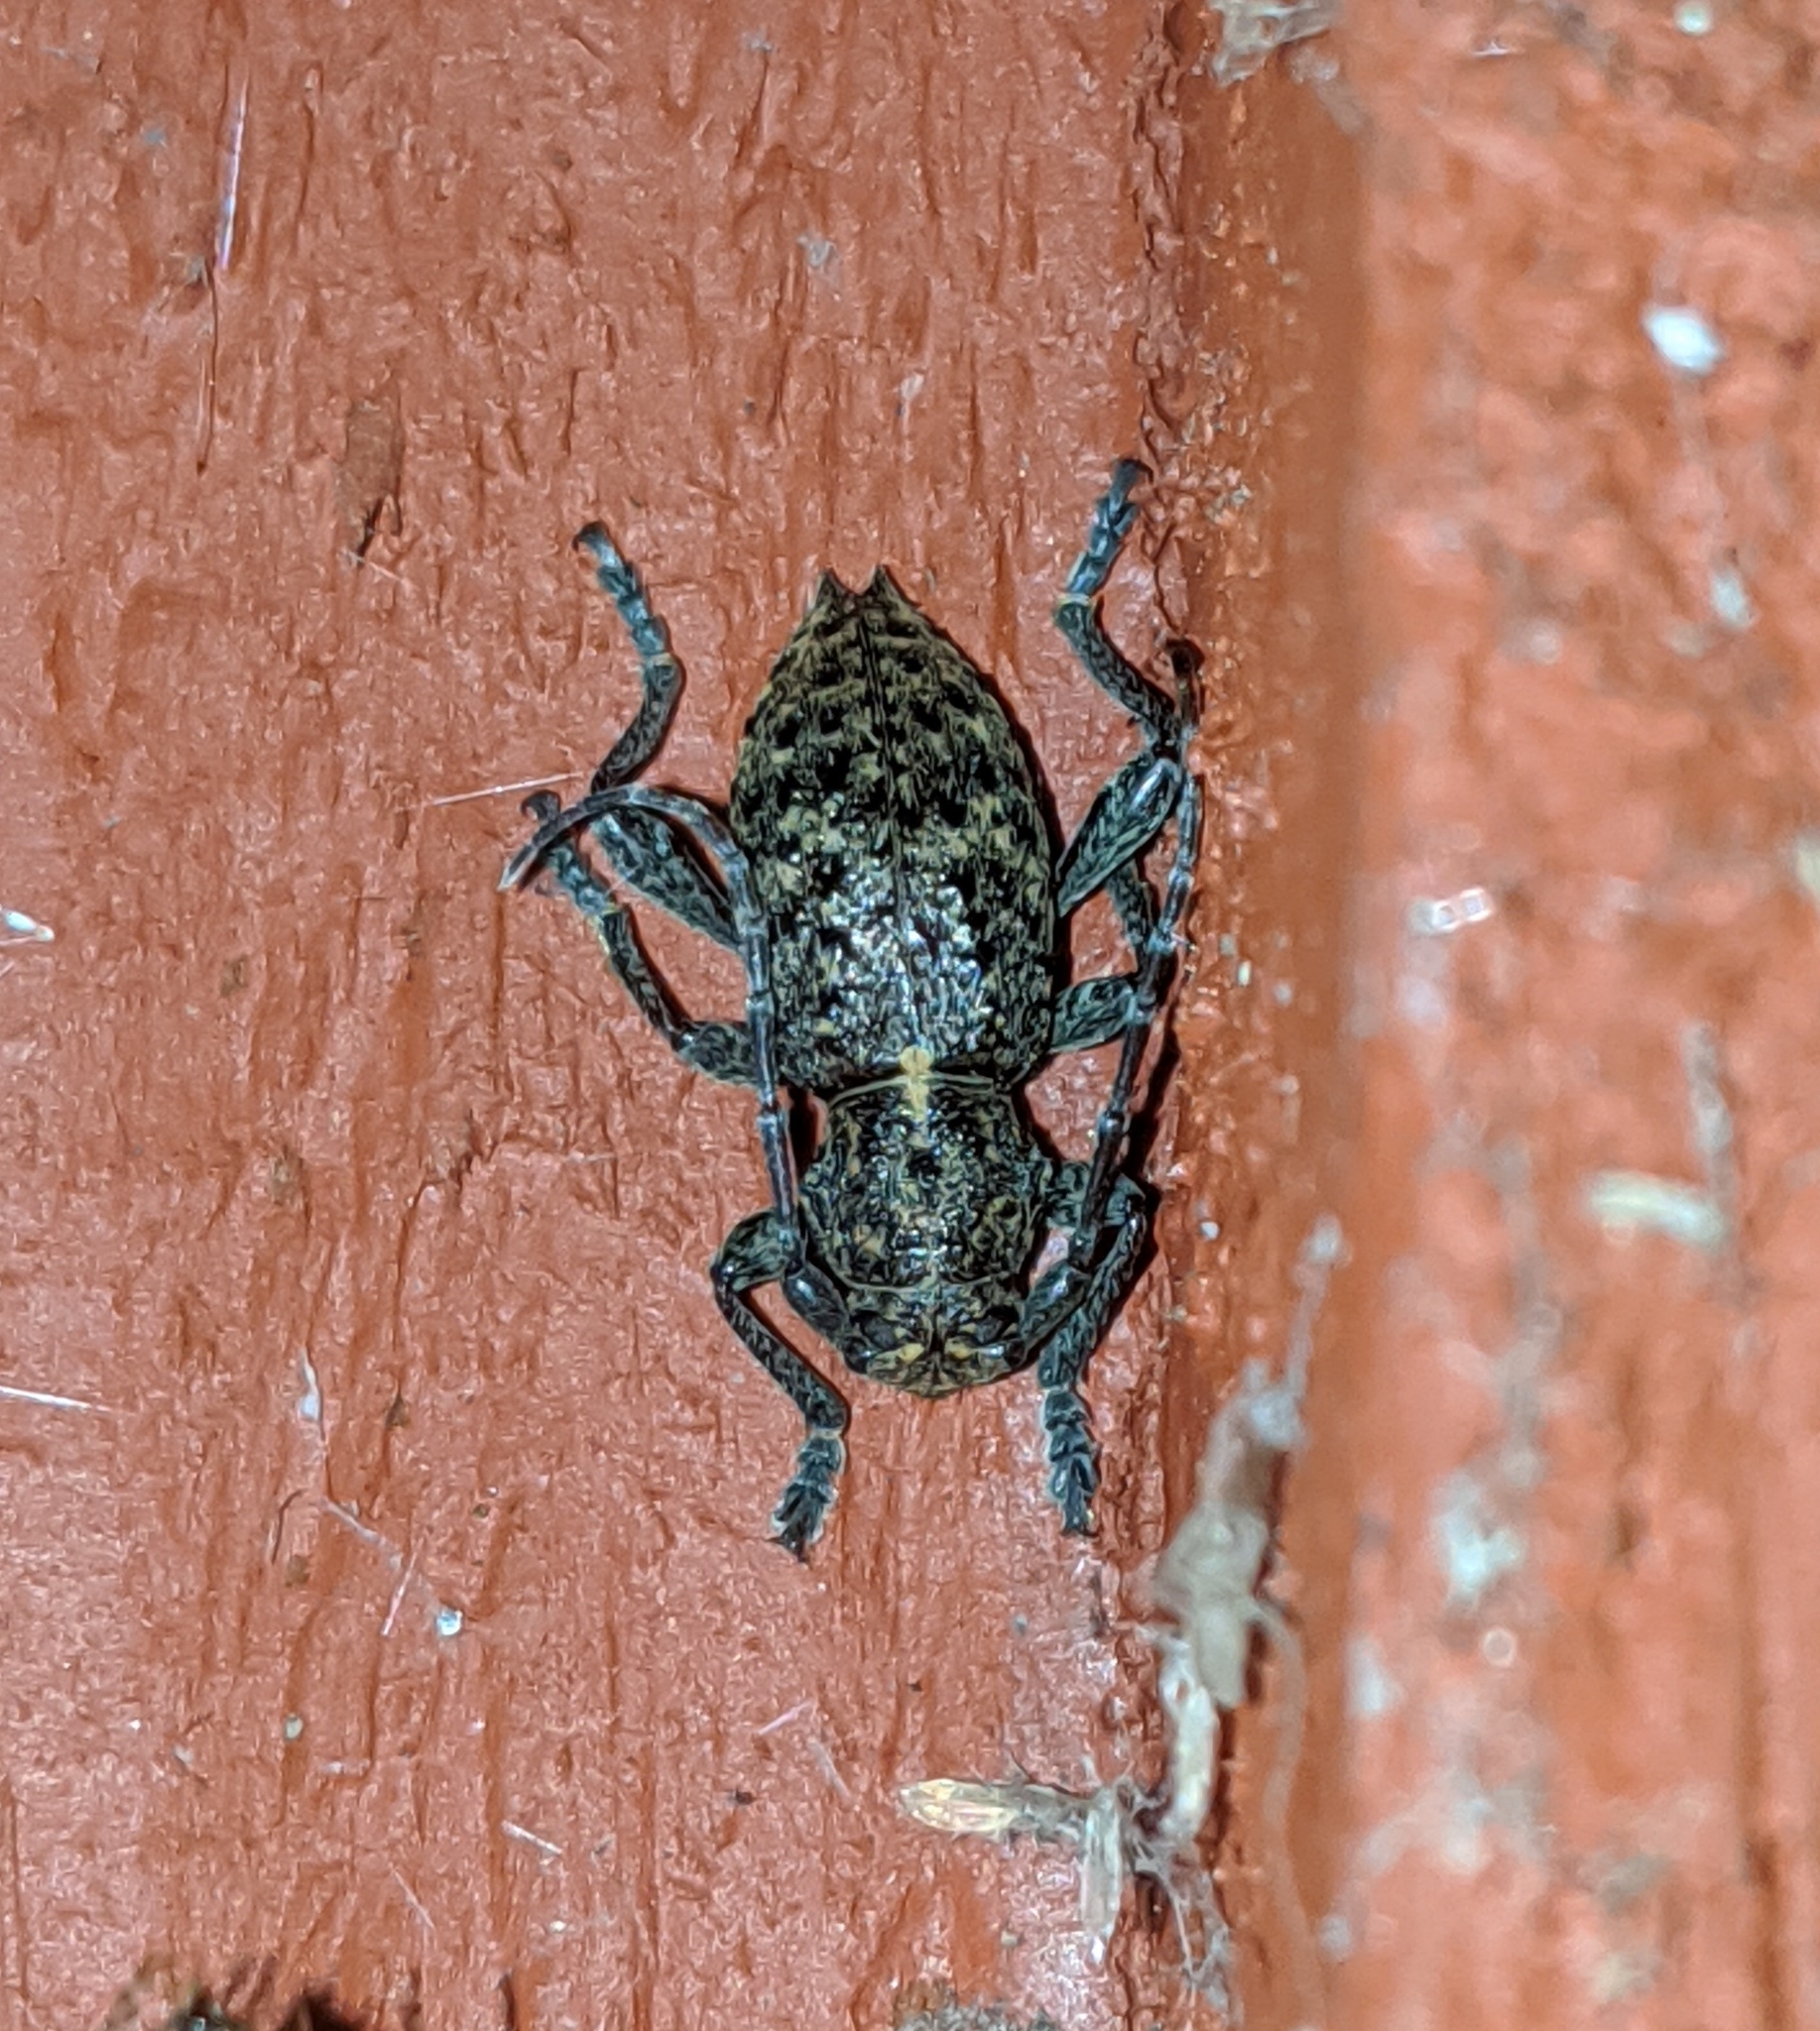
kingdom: Animalia
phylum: Arthropoda
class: Insecta
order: Coleoptera
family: Cerambycidae
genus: Plectrura
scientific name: Plectrura spinicauda
